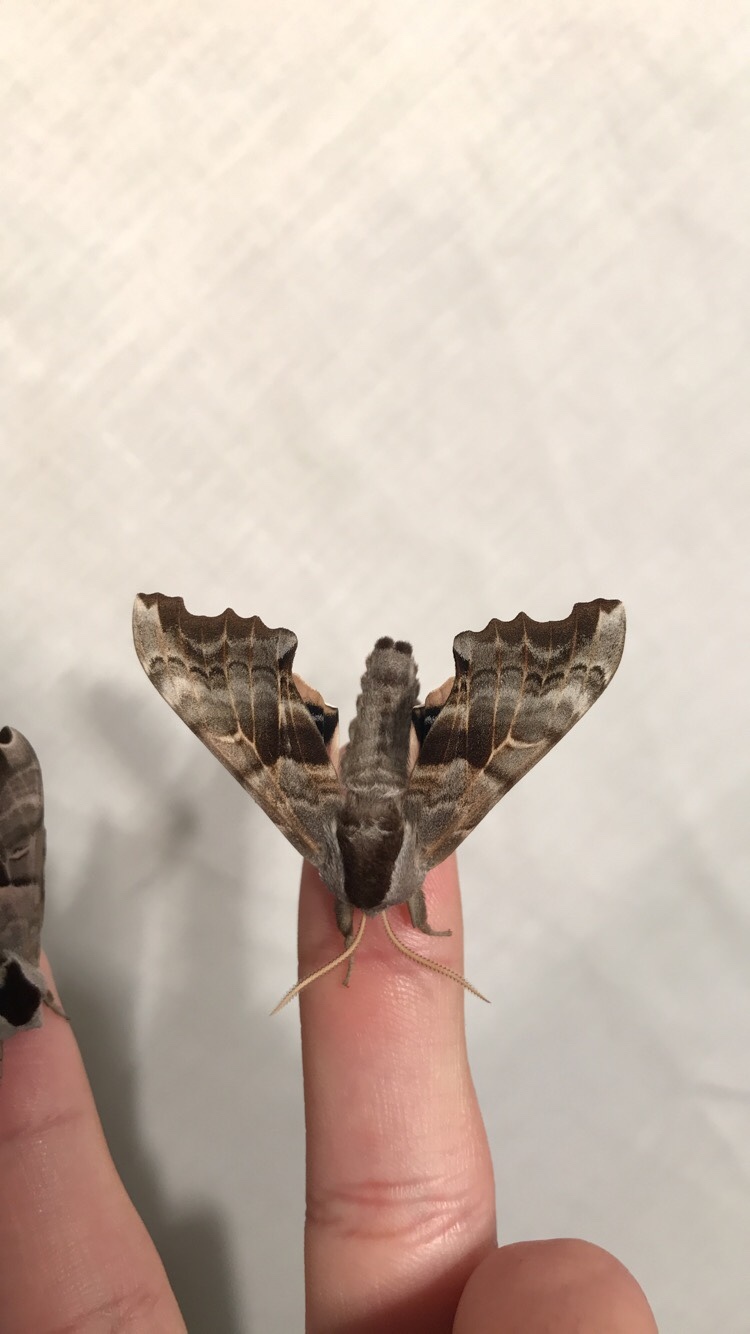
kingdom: Animalia
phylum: Arthropoda
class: Insecta
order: Lepidoptera
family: Sphingidae
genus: Smerinthus
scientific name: Smerinthus cerisyi
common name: Cerisy's sphinx moth
